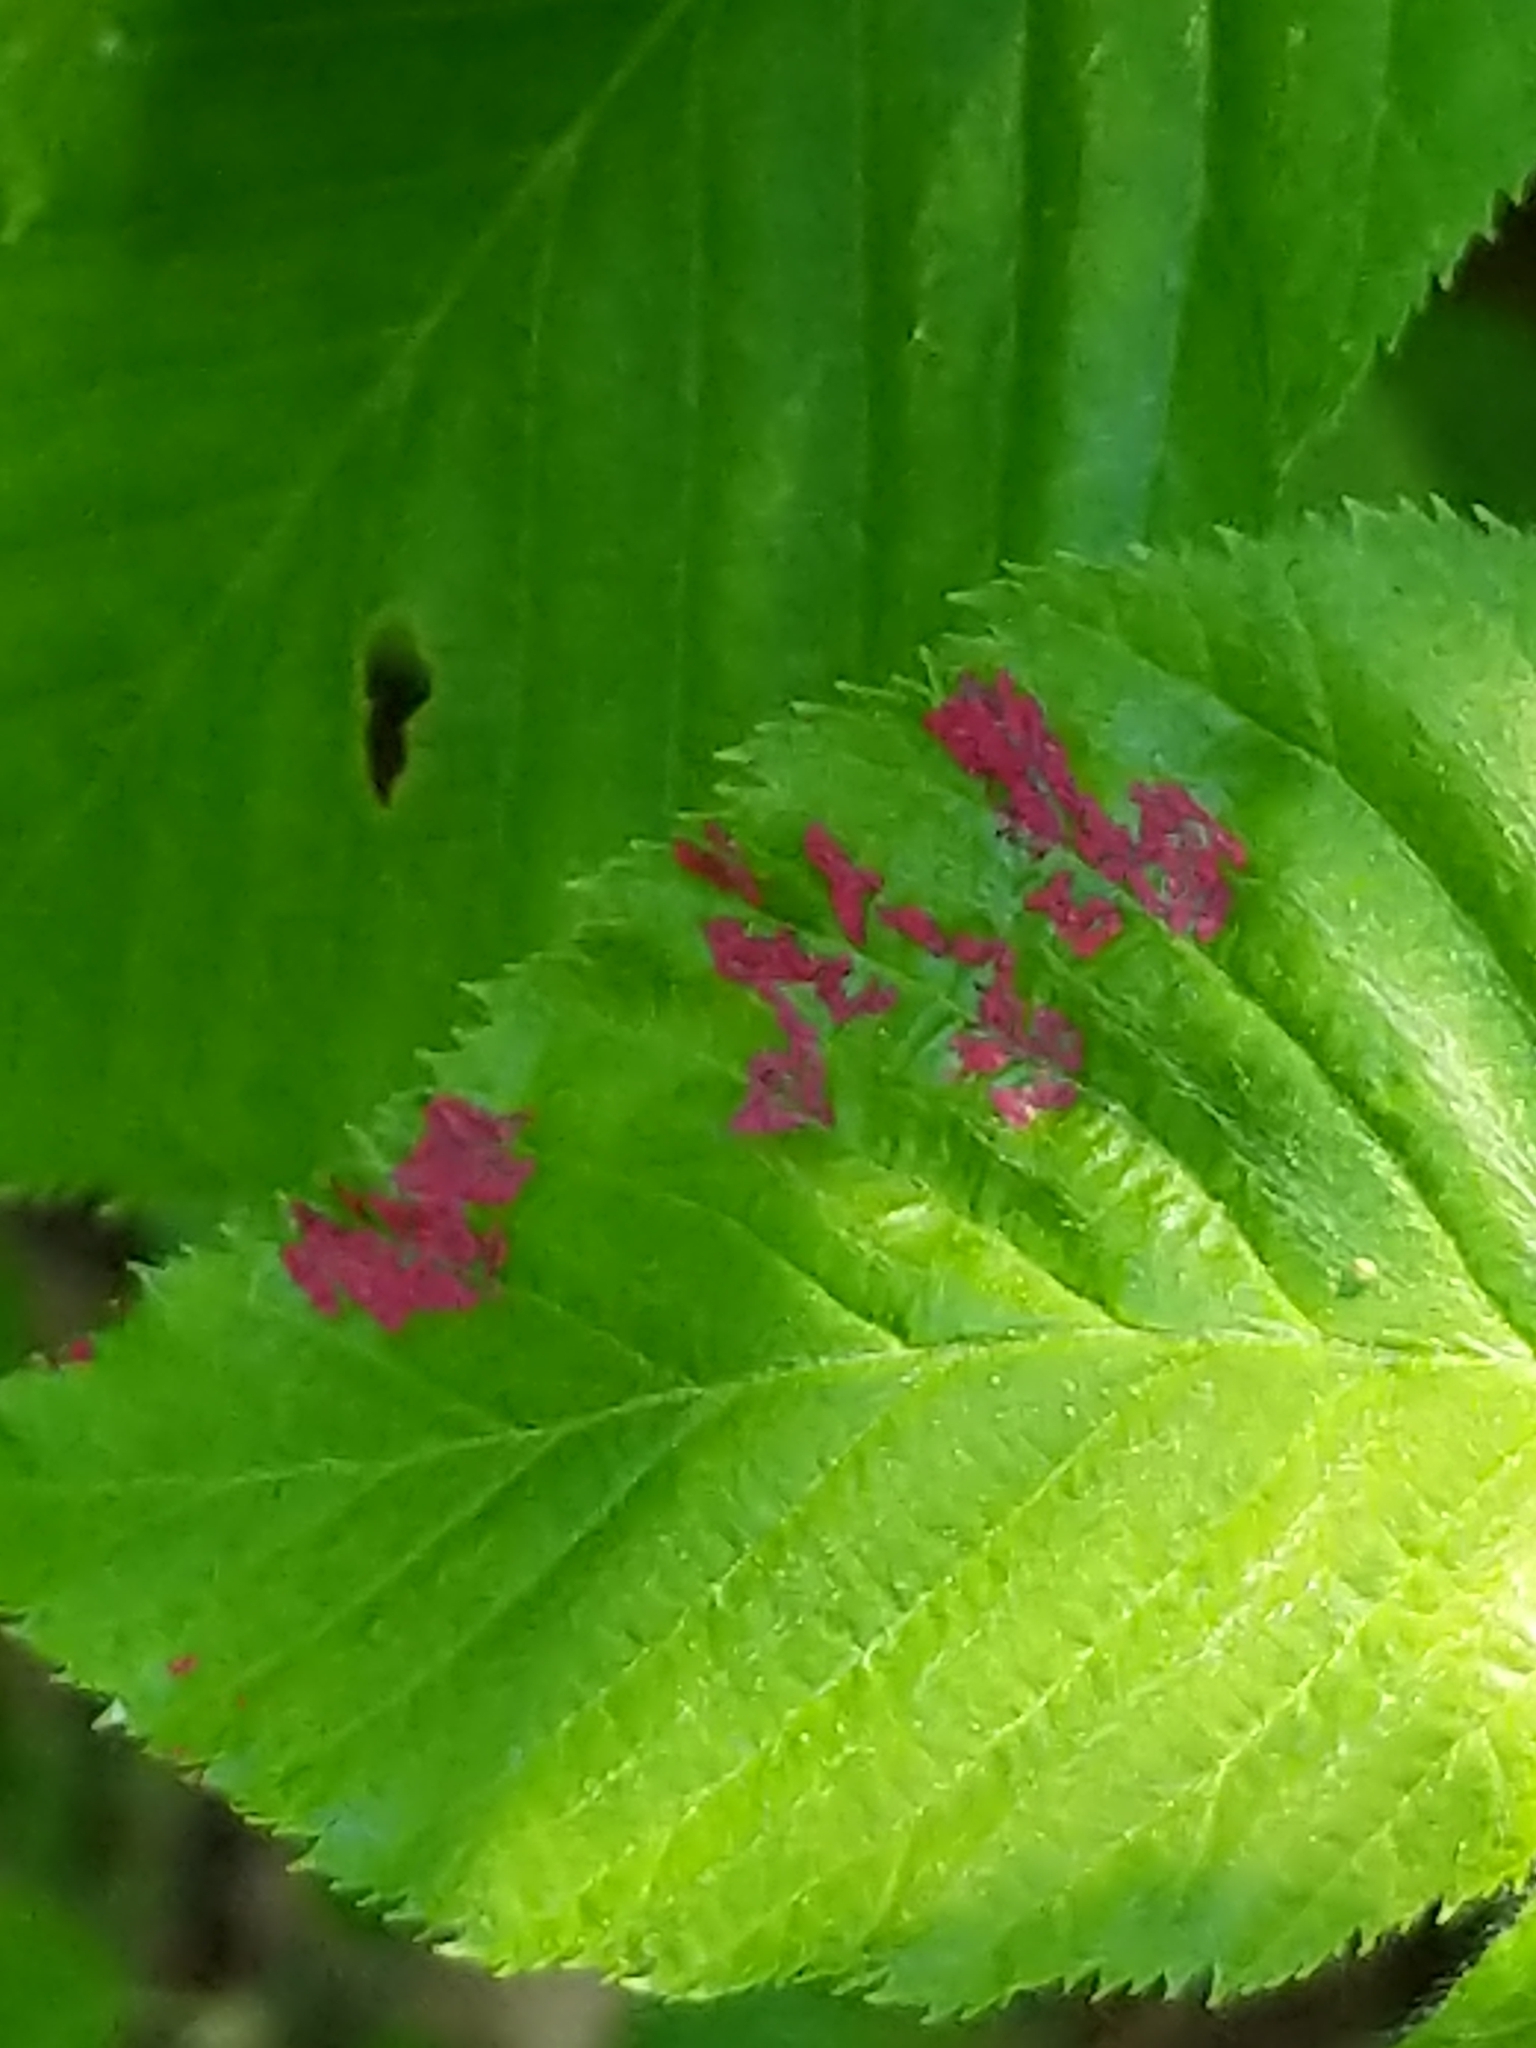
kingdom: Animalia
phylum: Arthropoda
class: Arachnida
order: Trombidiformes
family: Eriophyidae
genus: Acalitus
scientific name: Acalitus longisetosus
